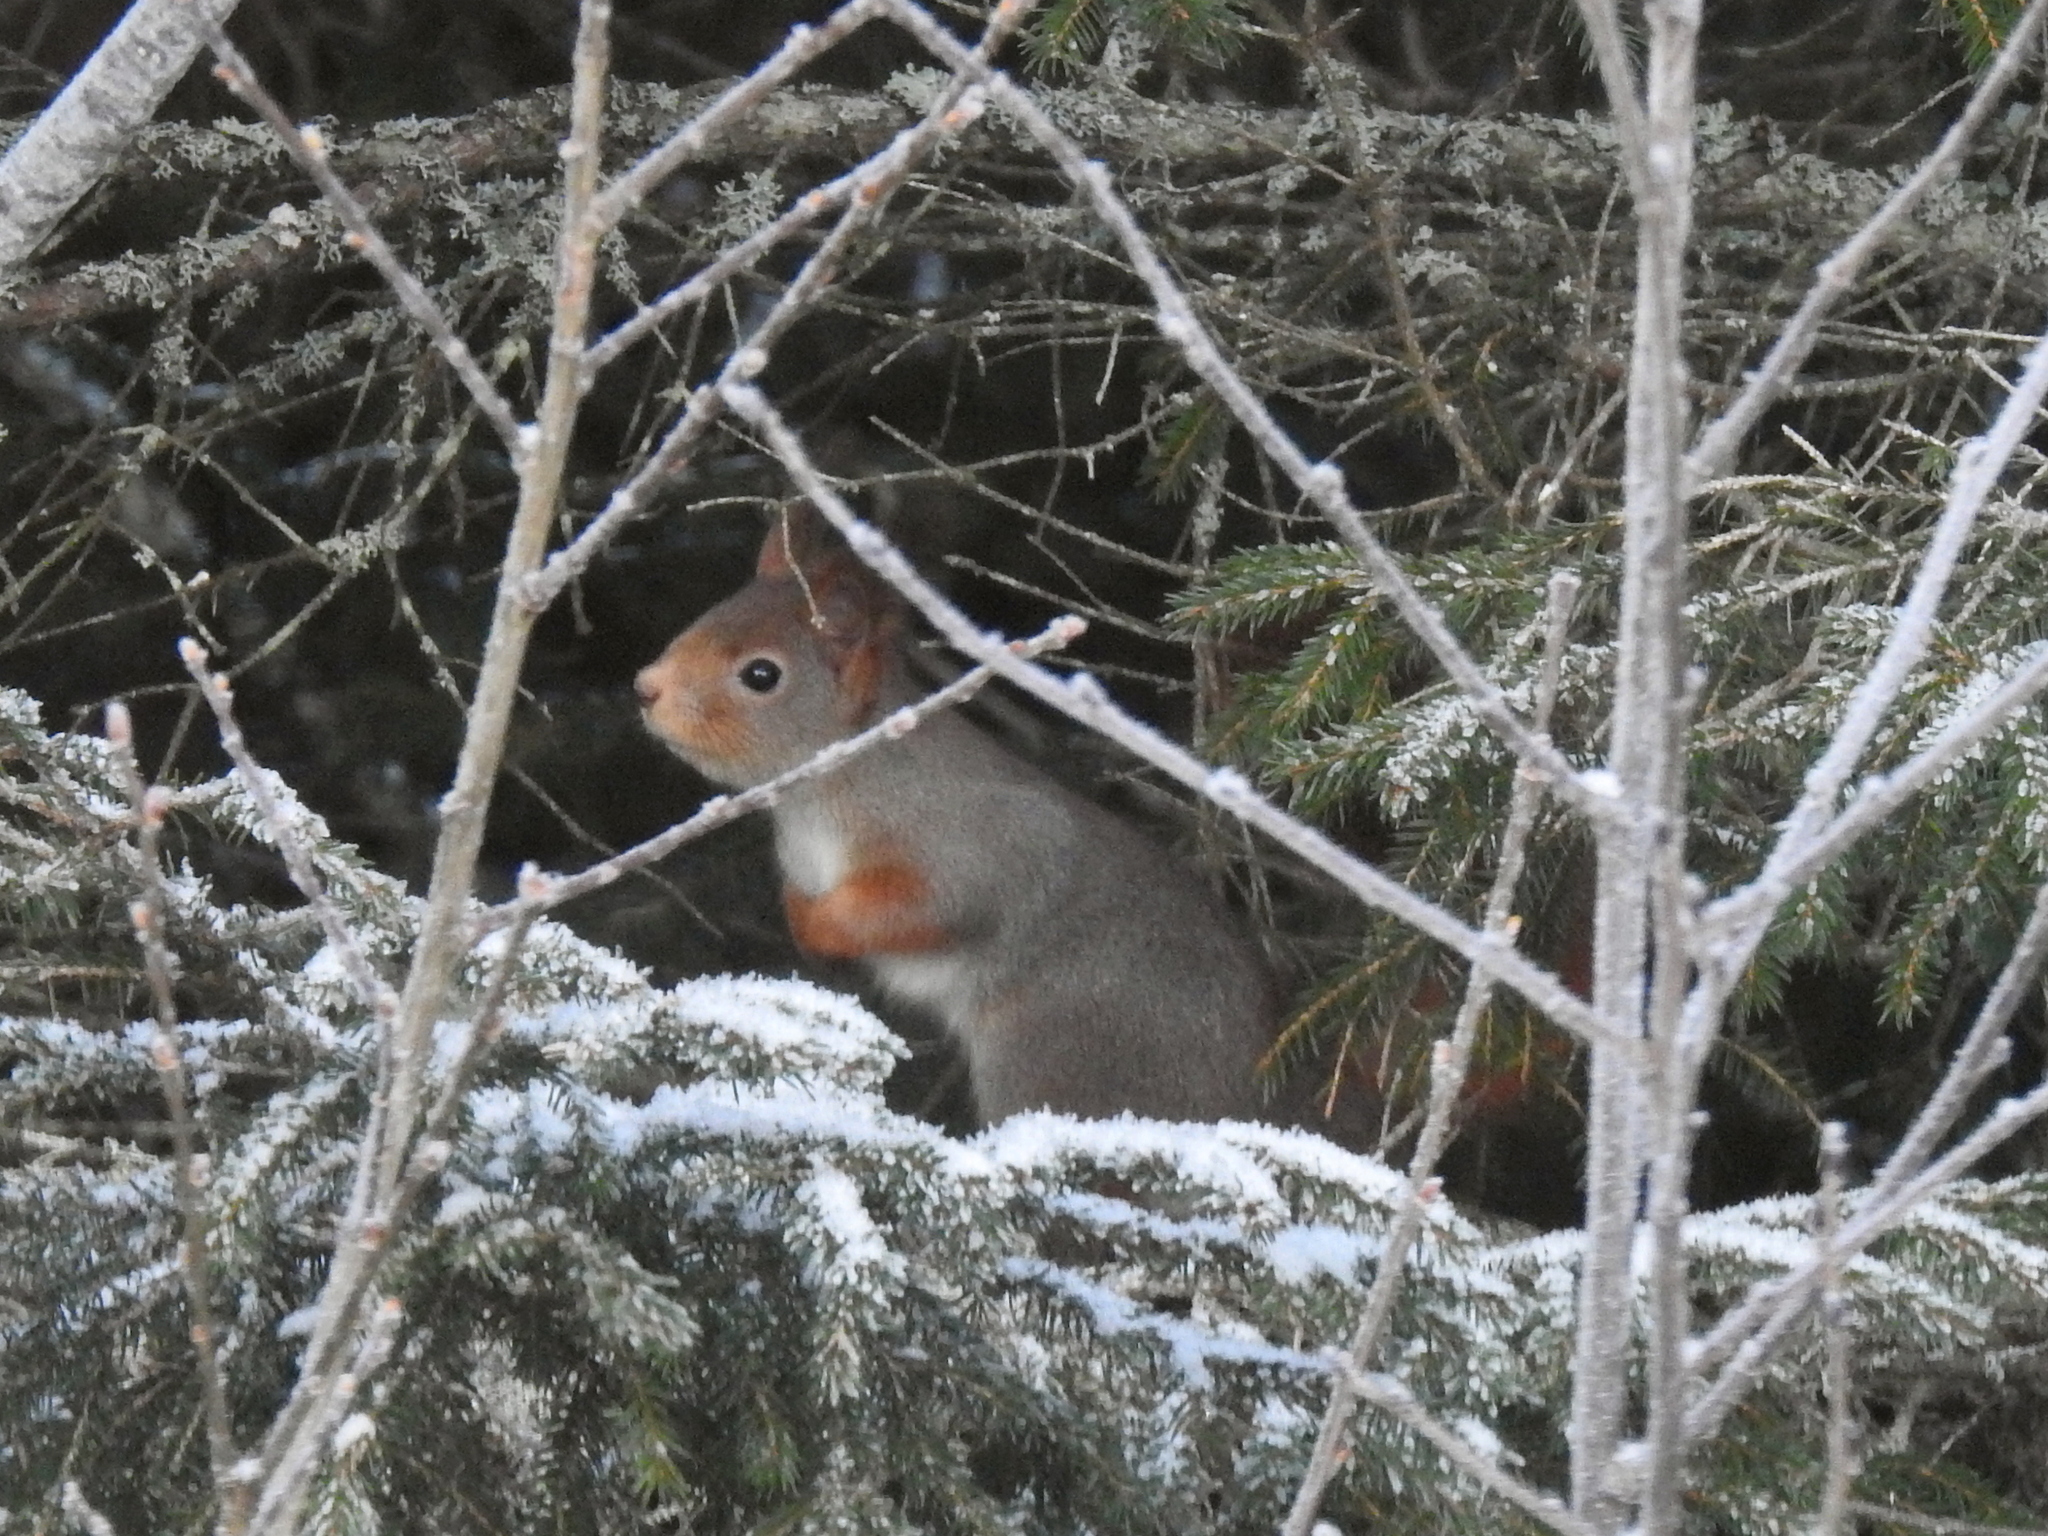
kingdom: Animalia
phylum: Chordata
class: Mammalia
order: Rodentia
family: Sciuridae
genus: Sciurus
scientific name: Sciurus vulgaris
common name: Eurasian red squirrel
